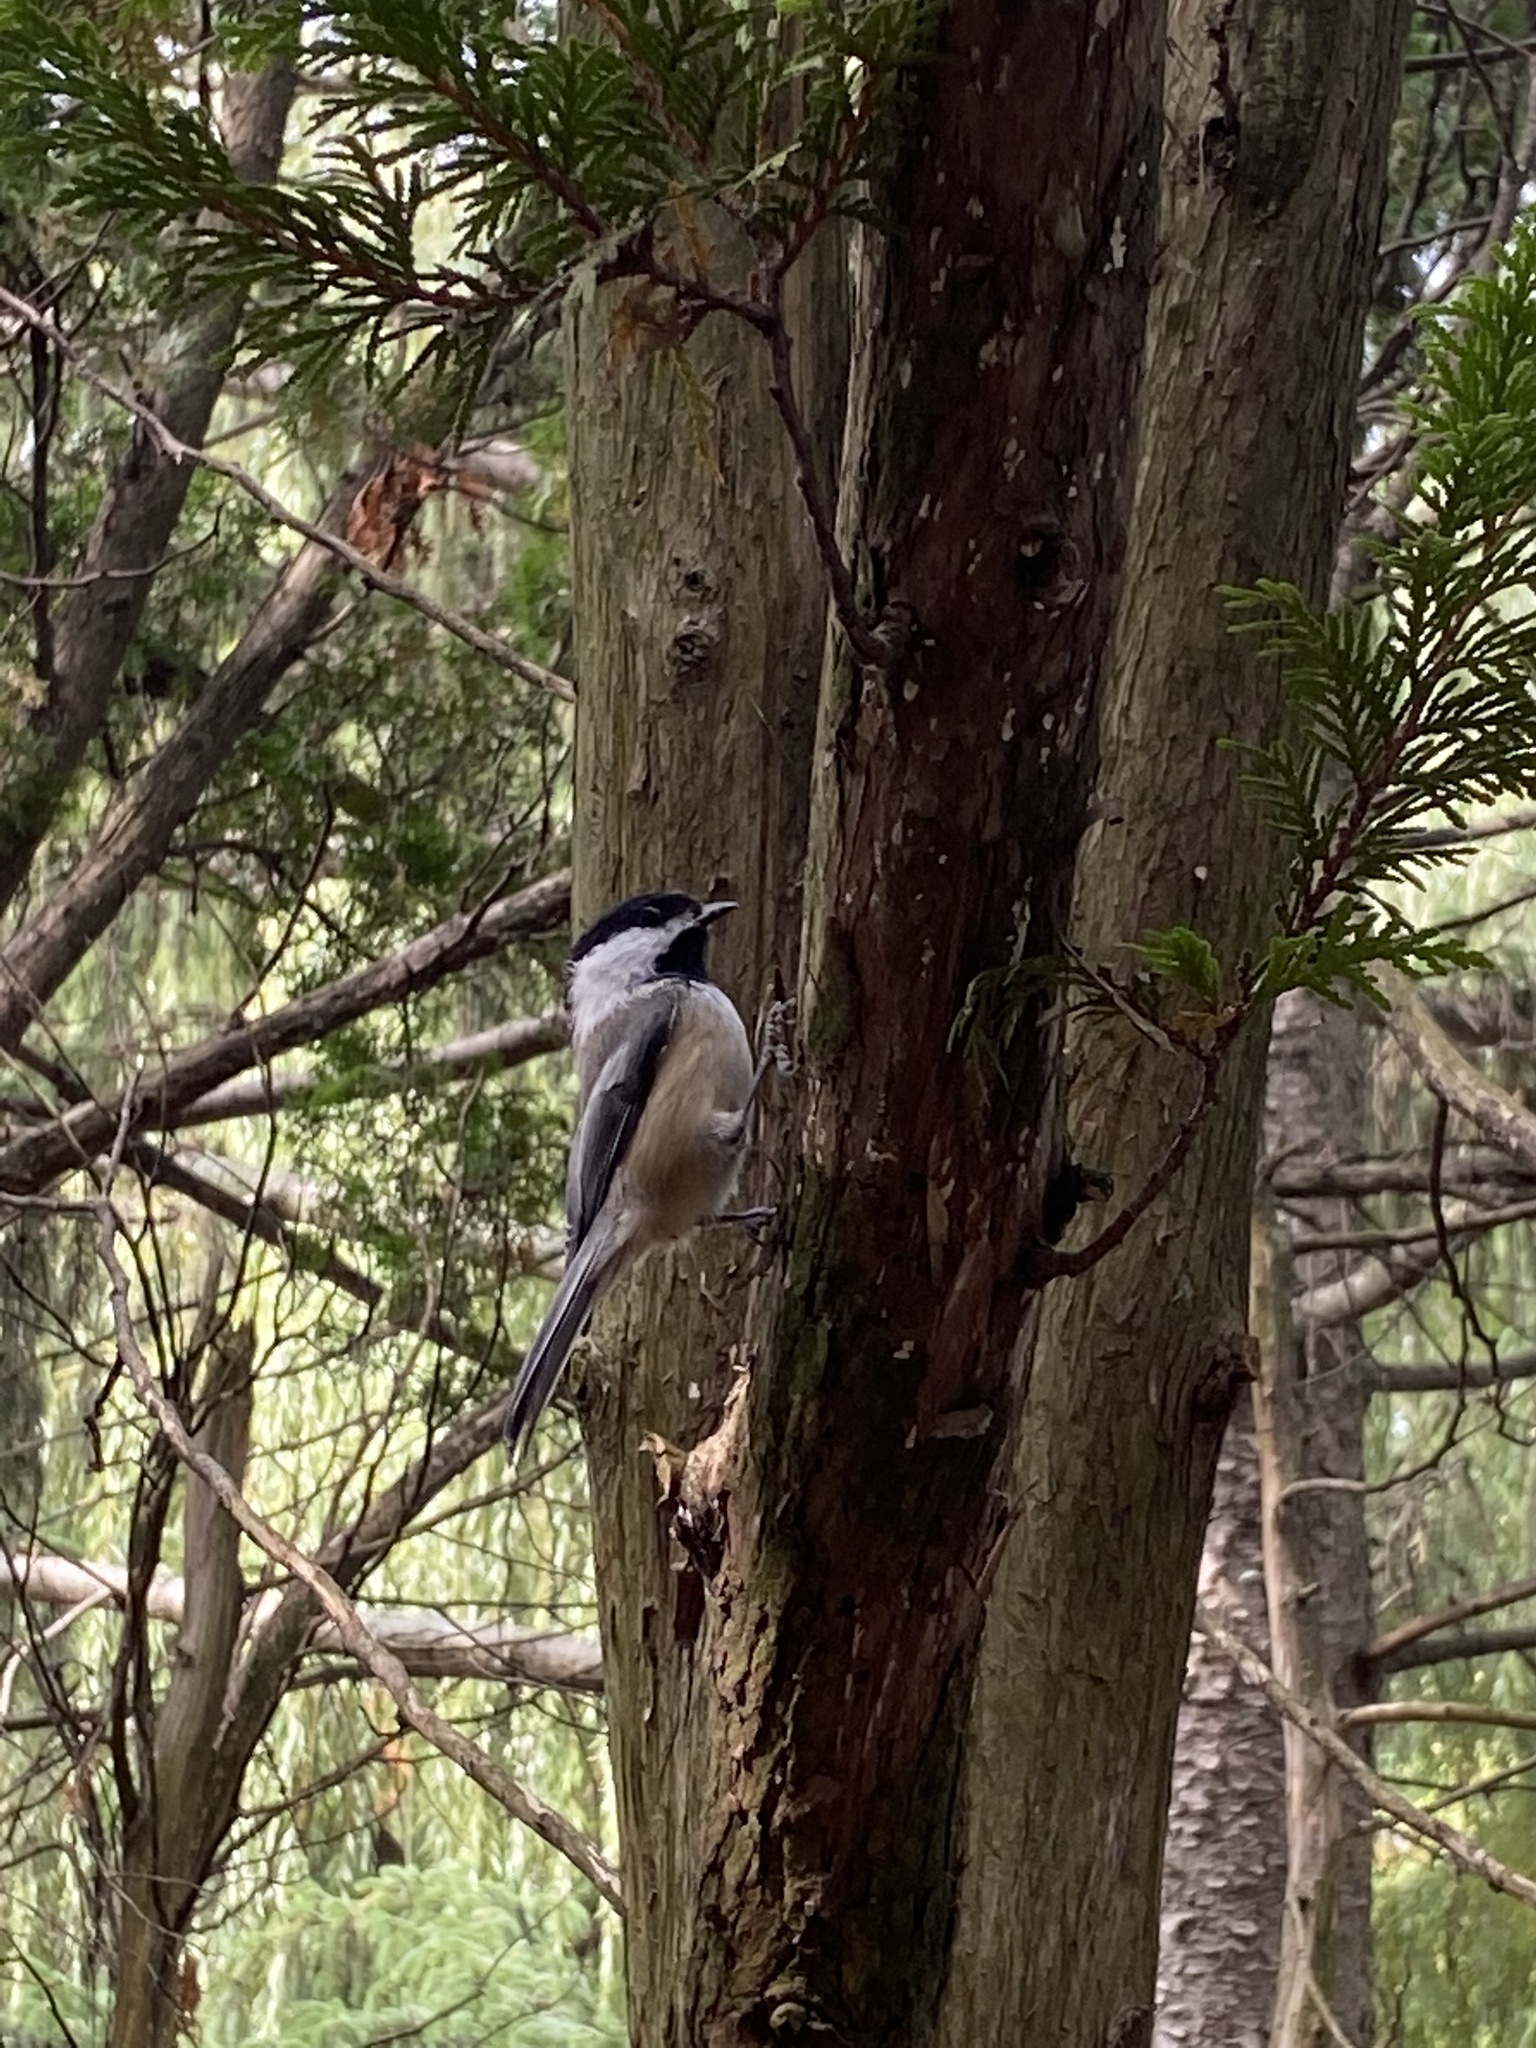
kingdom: Animalia
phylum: Chordata
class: Aves
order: Passeriformes
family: Paridae
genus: Poecile
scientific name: Poecile atricapillus
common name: Black-capped chickadee
